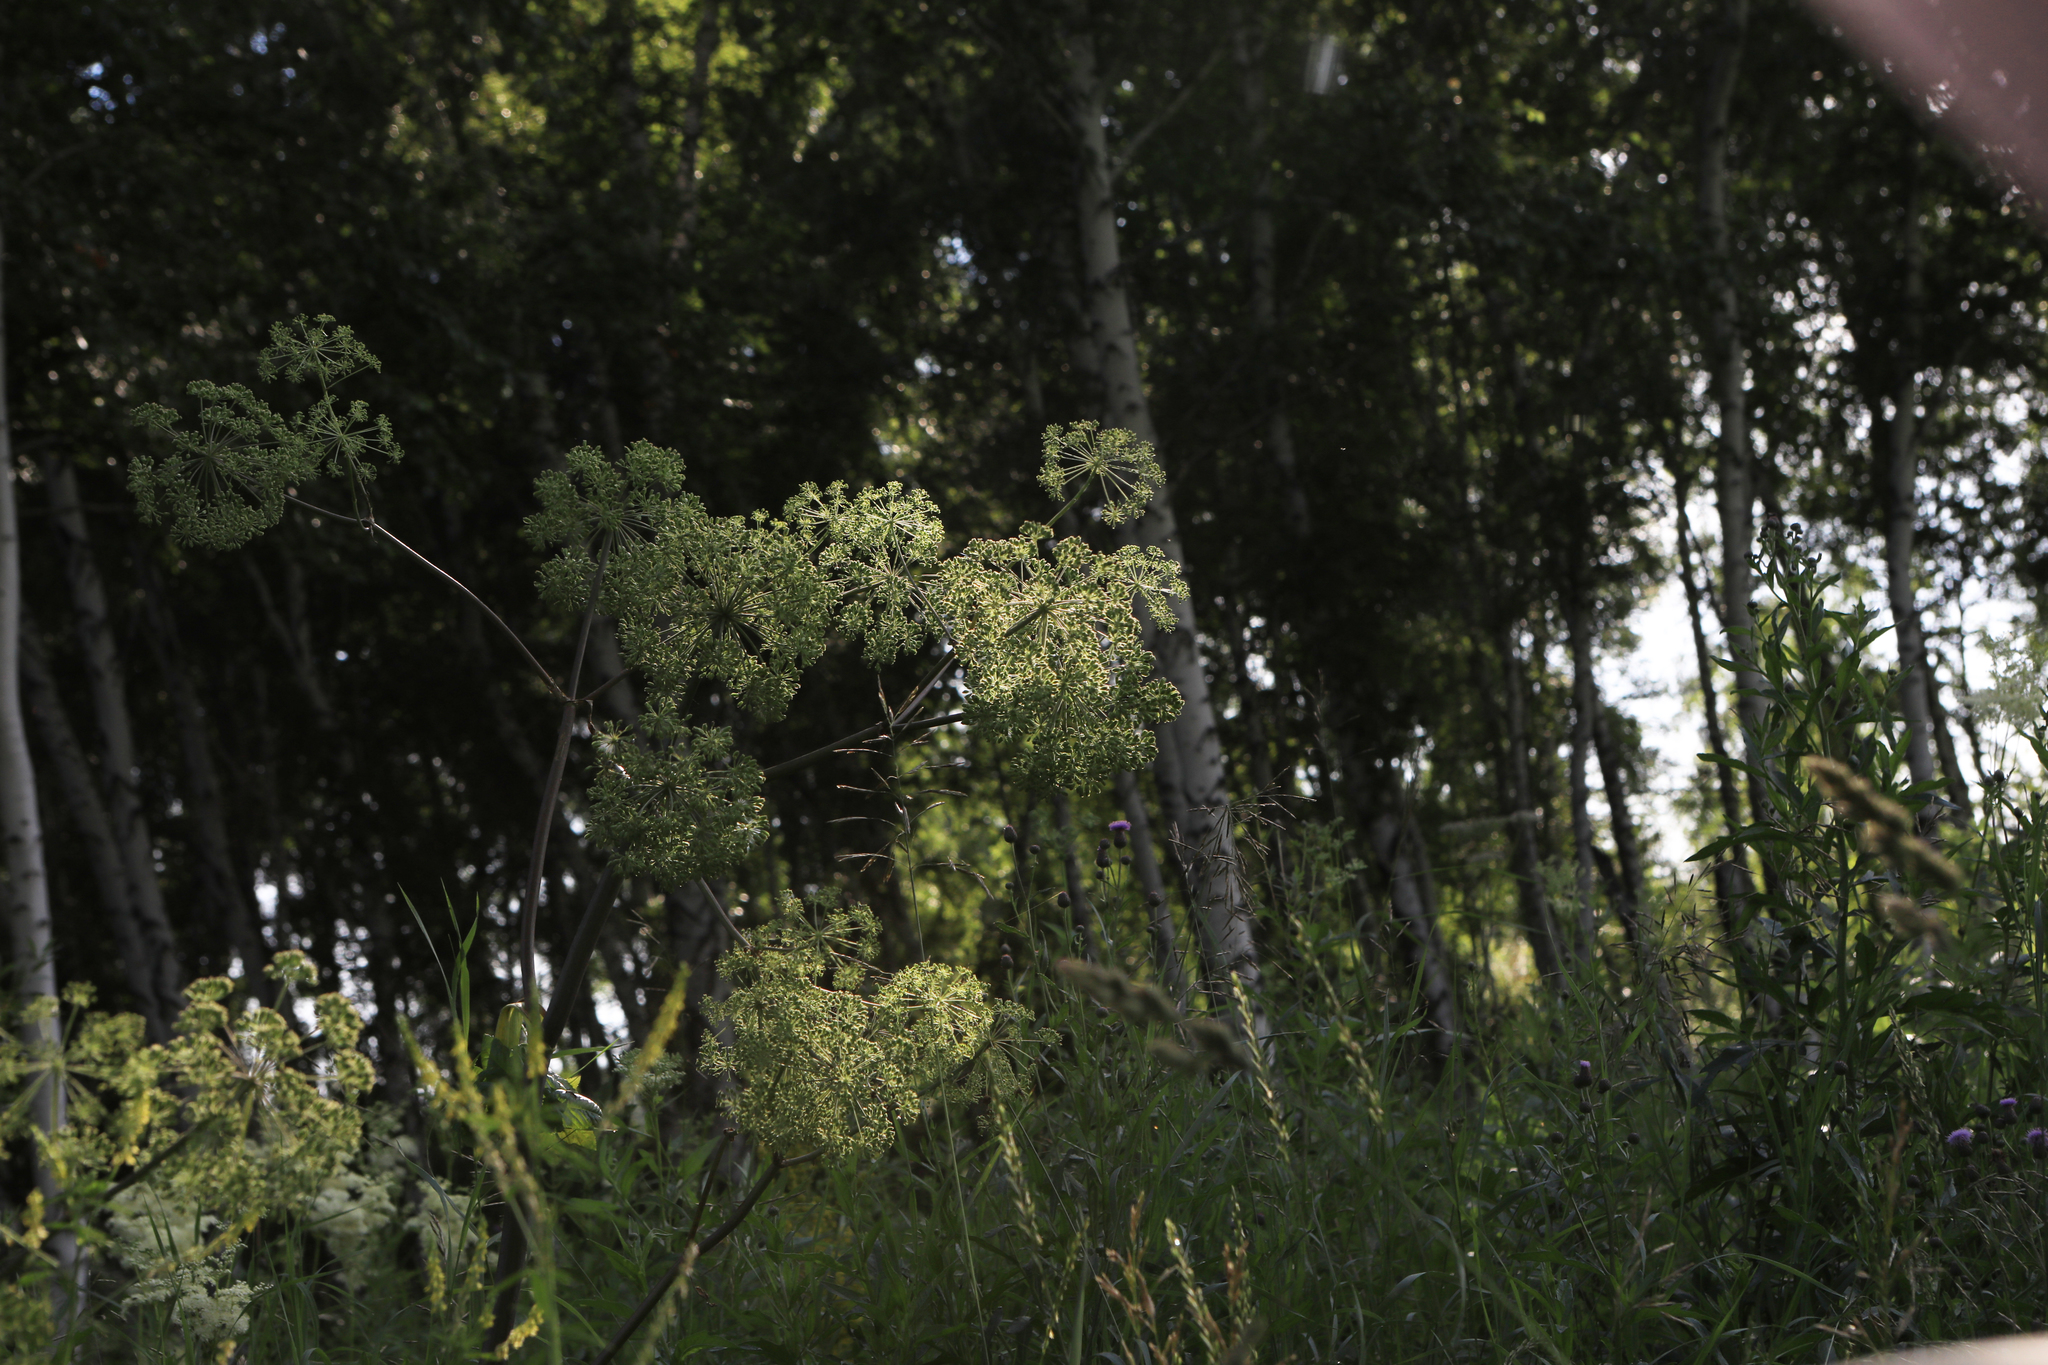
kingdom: Plantae
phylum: Tracheophyta
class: Magnoliopsida
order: Apiales
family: Apiaceae
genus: Angelica
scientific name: Angelica decurrens
